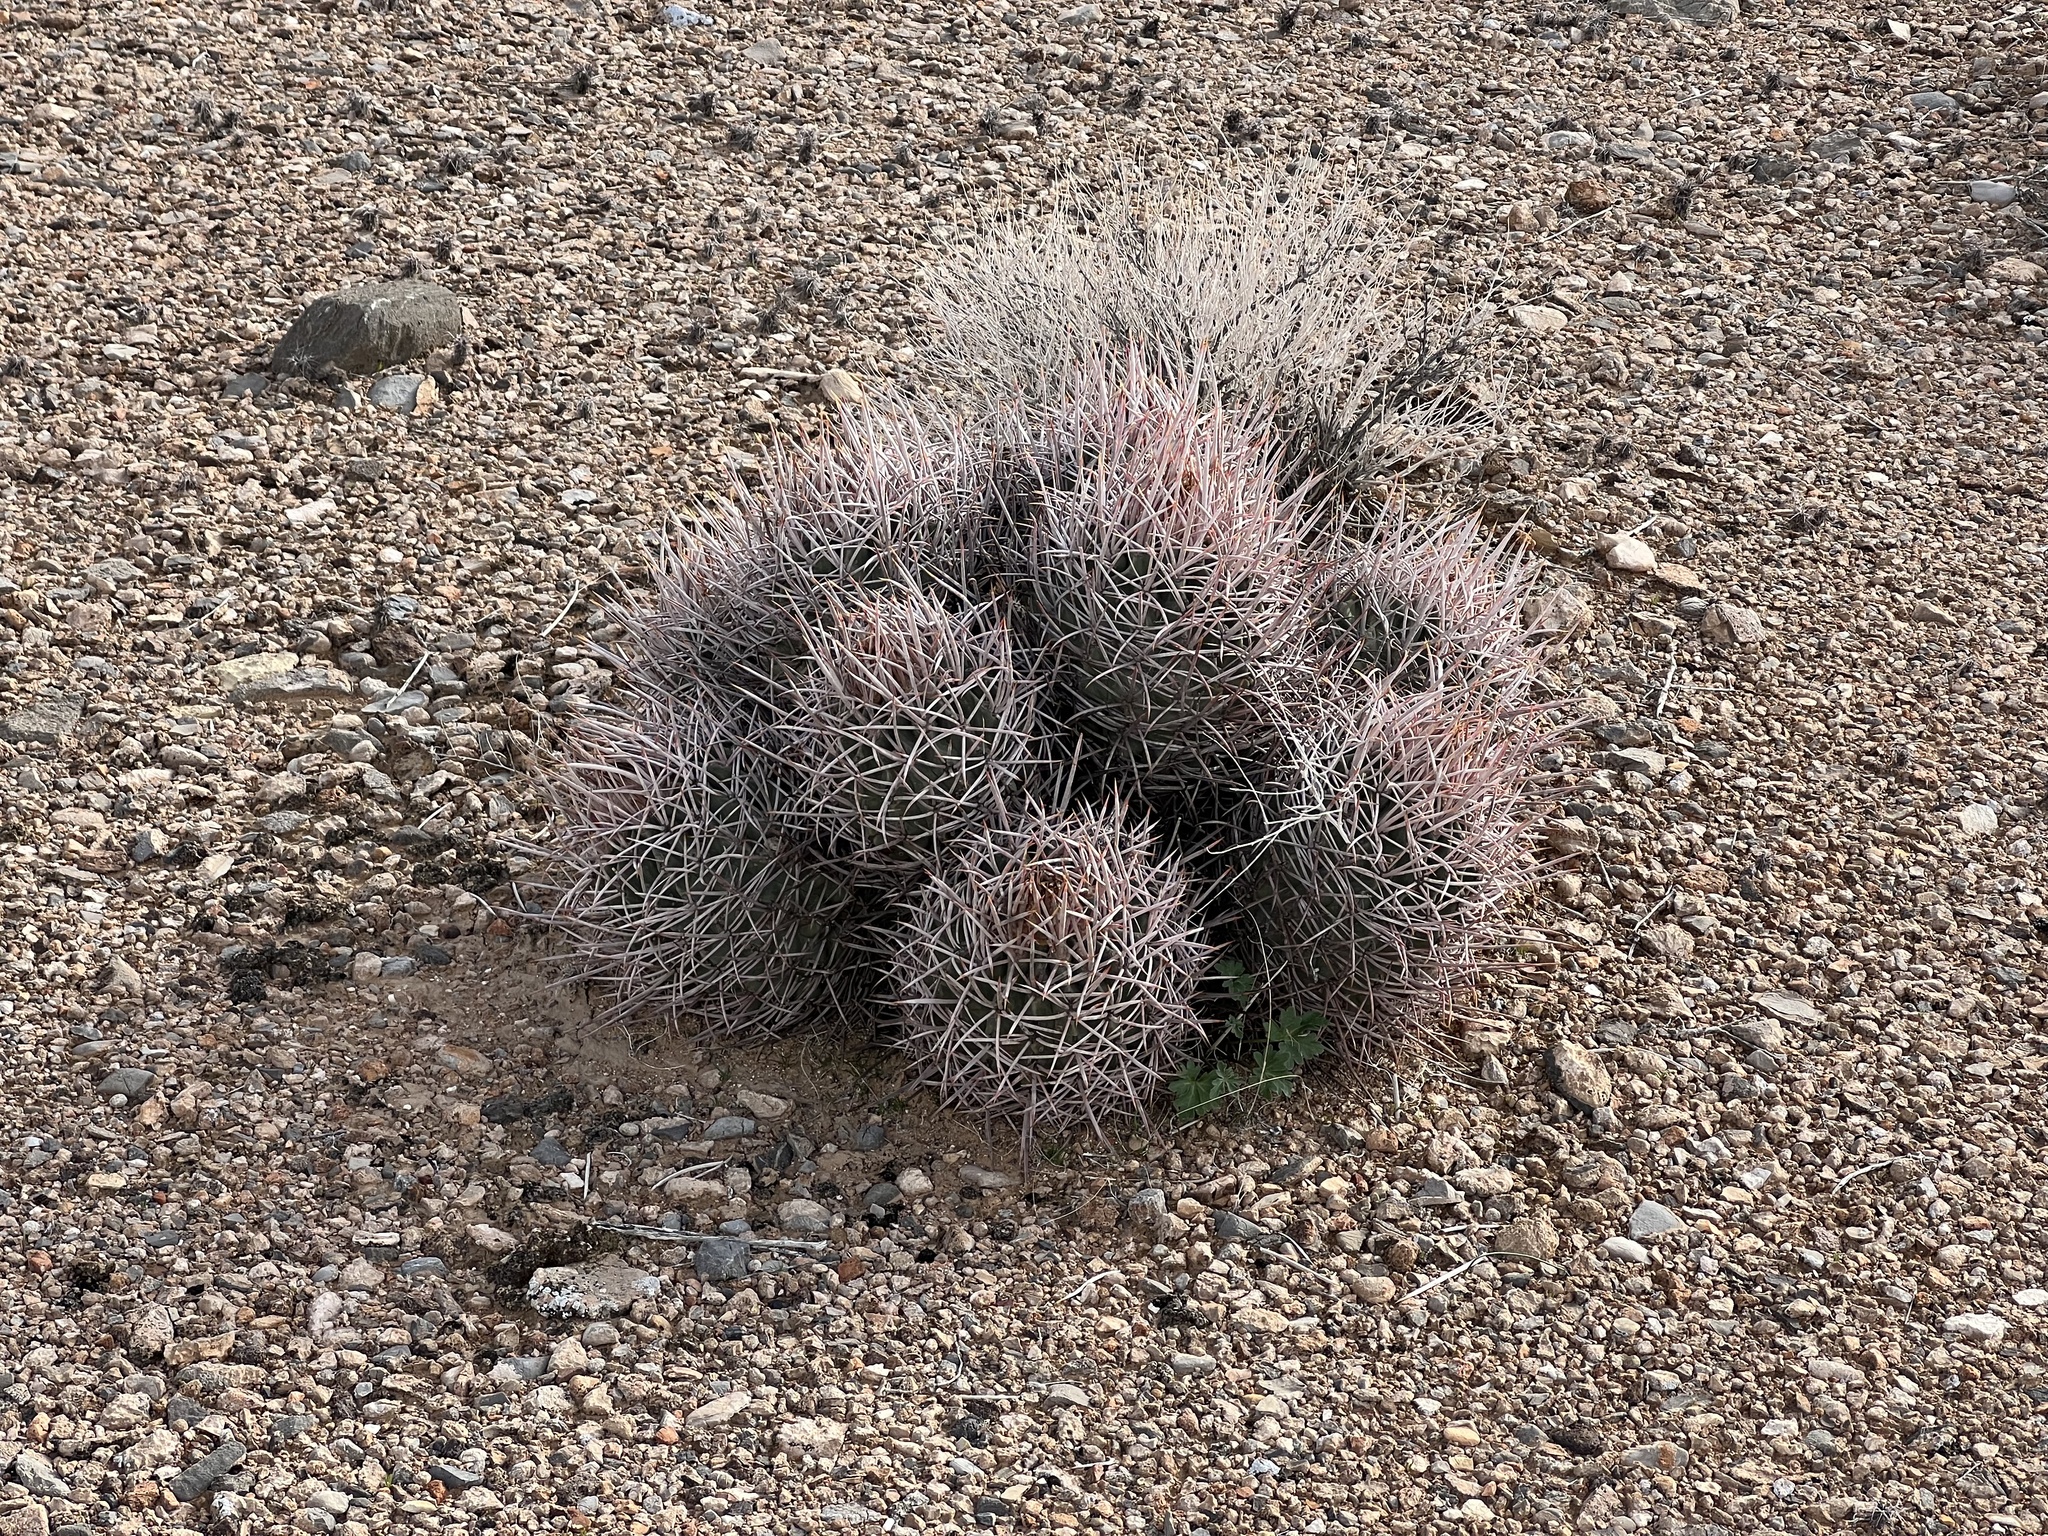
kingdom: Plantae
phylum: Tracheophyta
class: Magnoliopsida
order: Caryophyllales
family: Cactaceae
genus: Echinocactus
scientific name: Echinocactus polycephalus
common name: Cottontop cactus
